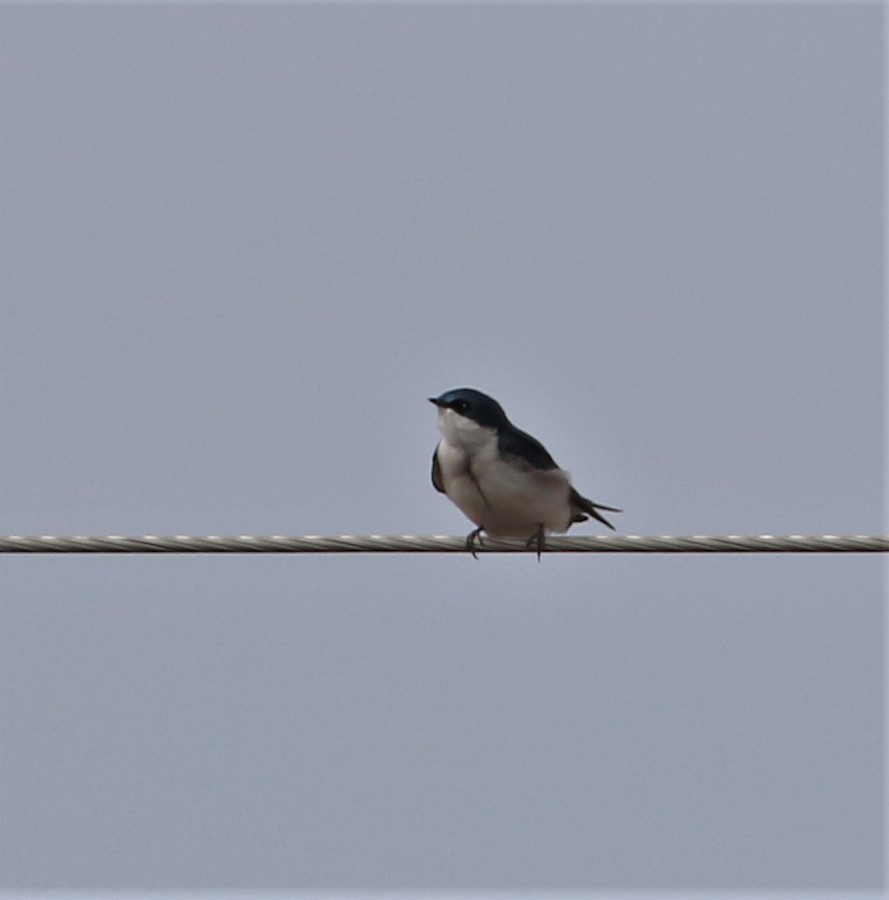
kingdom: Animalia
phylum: Chordata
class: Aves
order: Passeriformes
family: Hirundinidae
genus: Tachycineta
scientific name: Tachycineta bicolor
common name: Tree swallow
